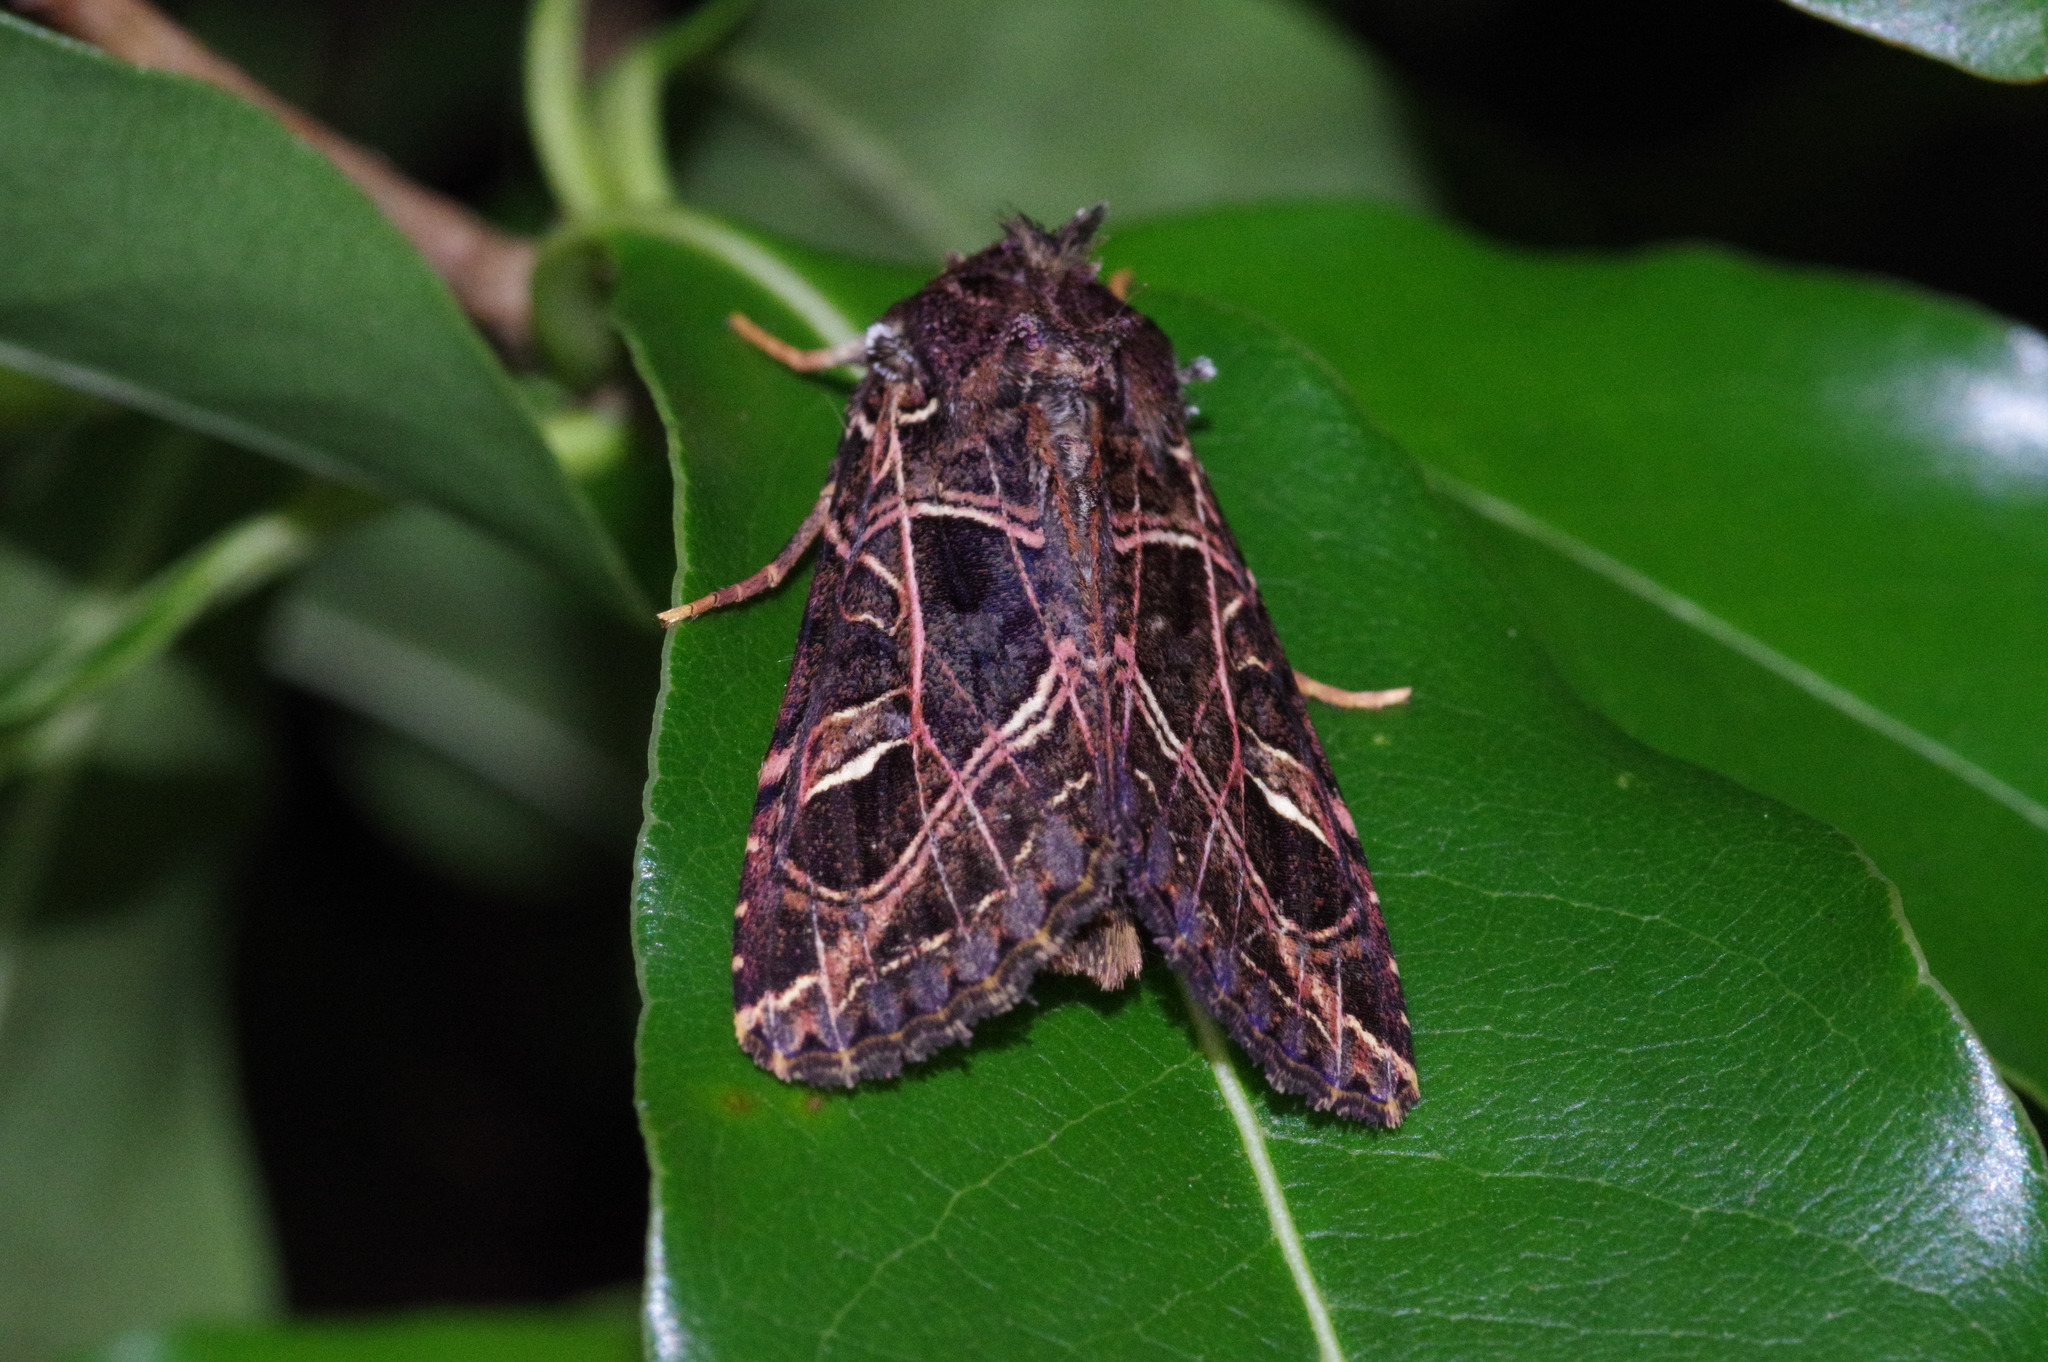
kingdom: Animalia
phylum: Arthropoda
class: Insecta
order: Lepidoptera
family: Noctuidae
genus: Dictyestra
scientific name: Dictyestra dissectus
